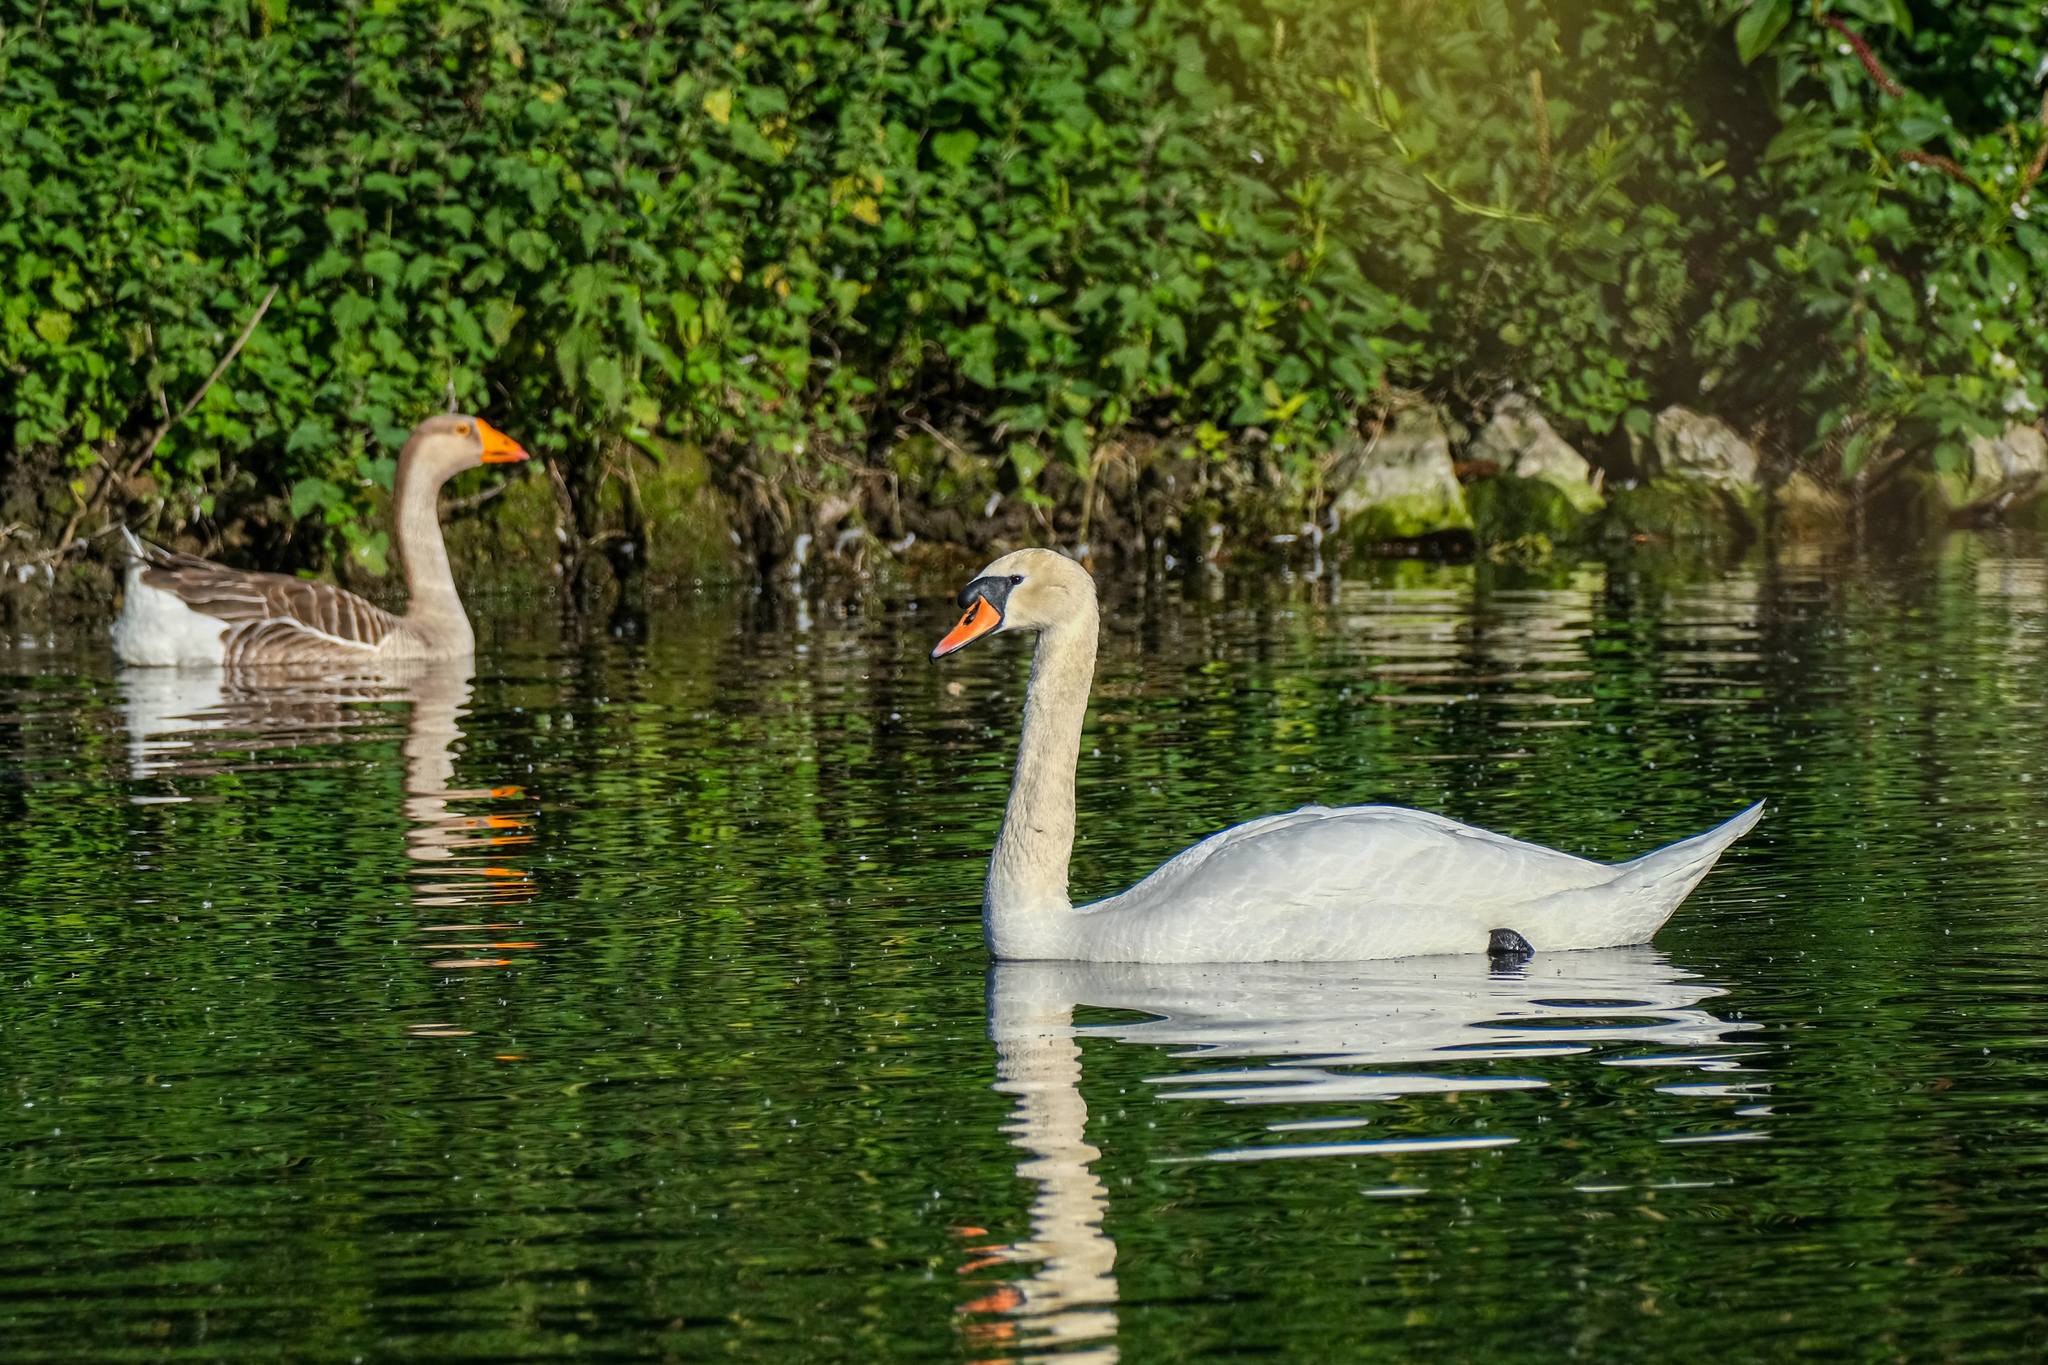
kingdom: Animalia
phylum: Chordata
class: Aves
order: Anseriformes
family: Anatidae
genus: Cygnus
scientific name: Cygnus olor
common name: Mute swan
